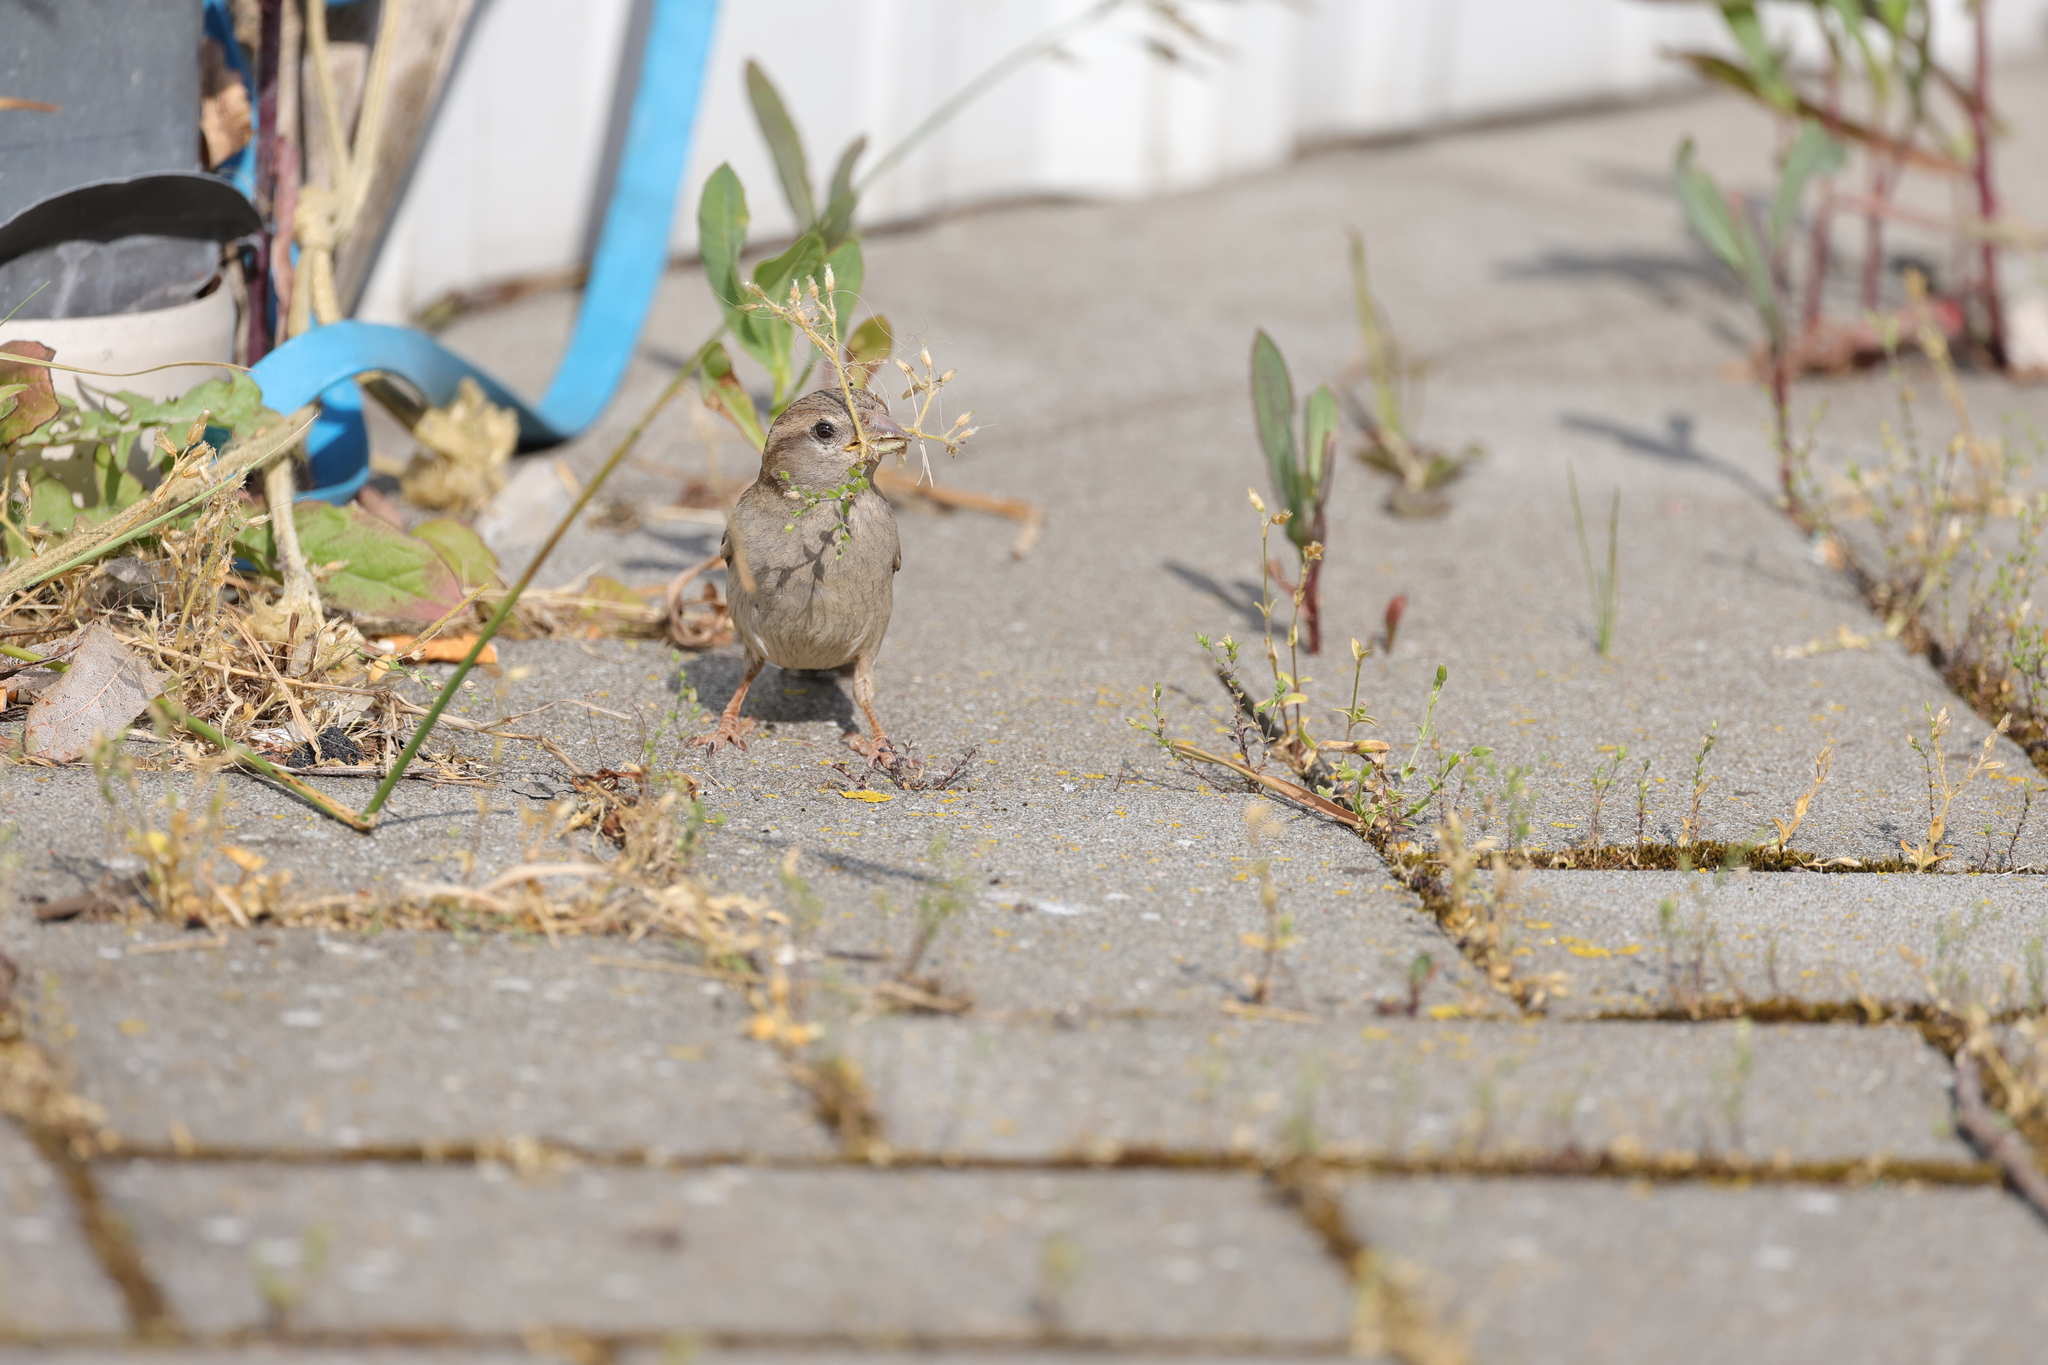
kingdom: Animalia
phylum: Chordata
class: Aves
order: Passeriformes
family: Passeridae
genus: Passer
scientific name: Passer domesticus
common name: House sparrow
